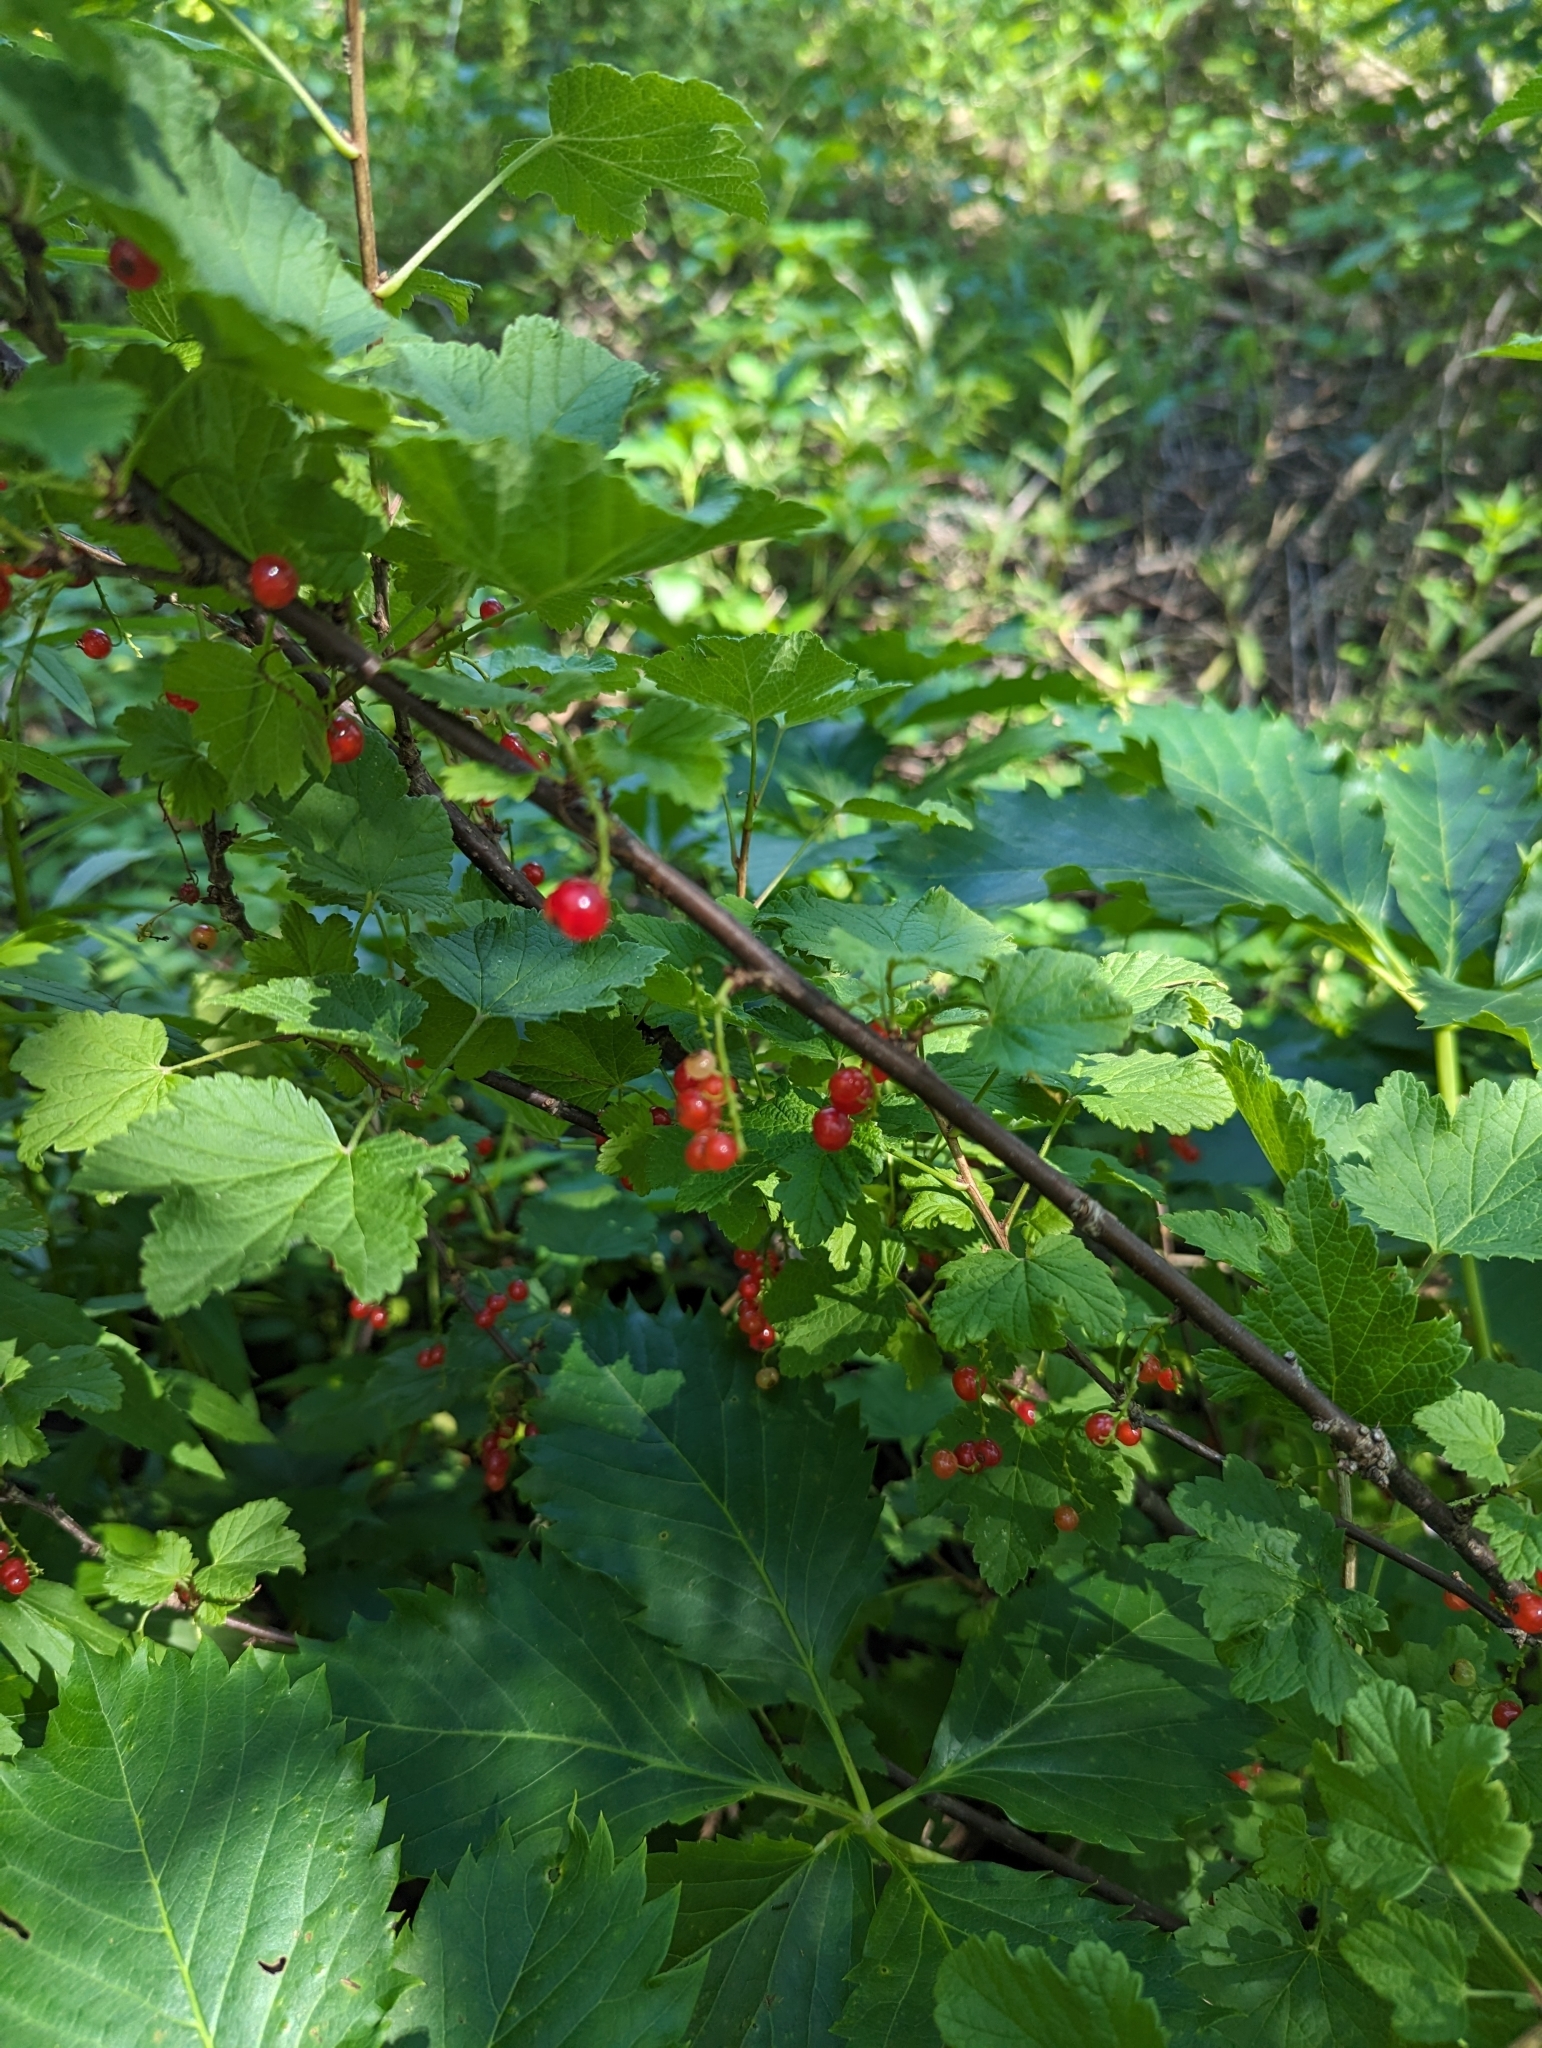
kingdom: Plantae
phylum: Tracheophyta
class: Magnoliopsida
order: Saxifragales
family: Grossulariaceae
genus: Ribes
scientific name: Ribes rubrum
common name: Red currant
